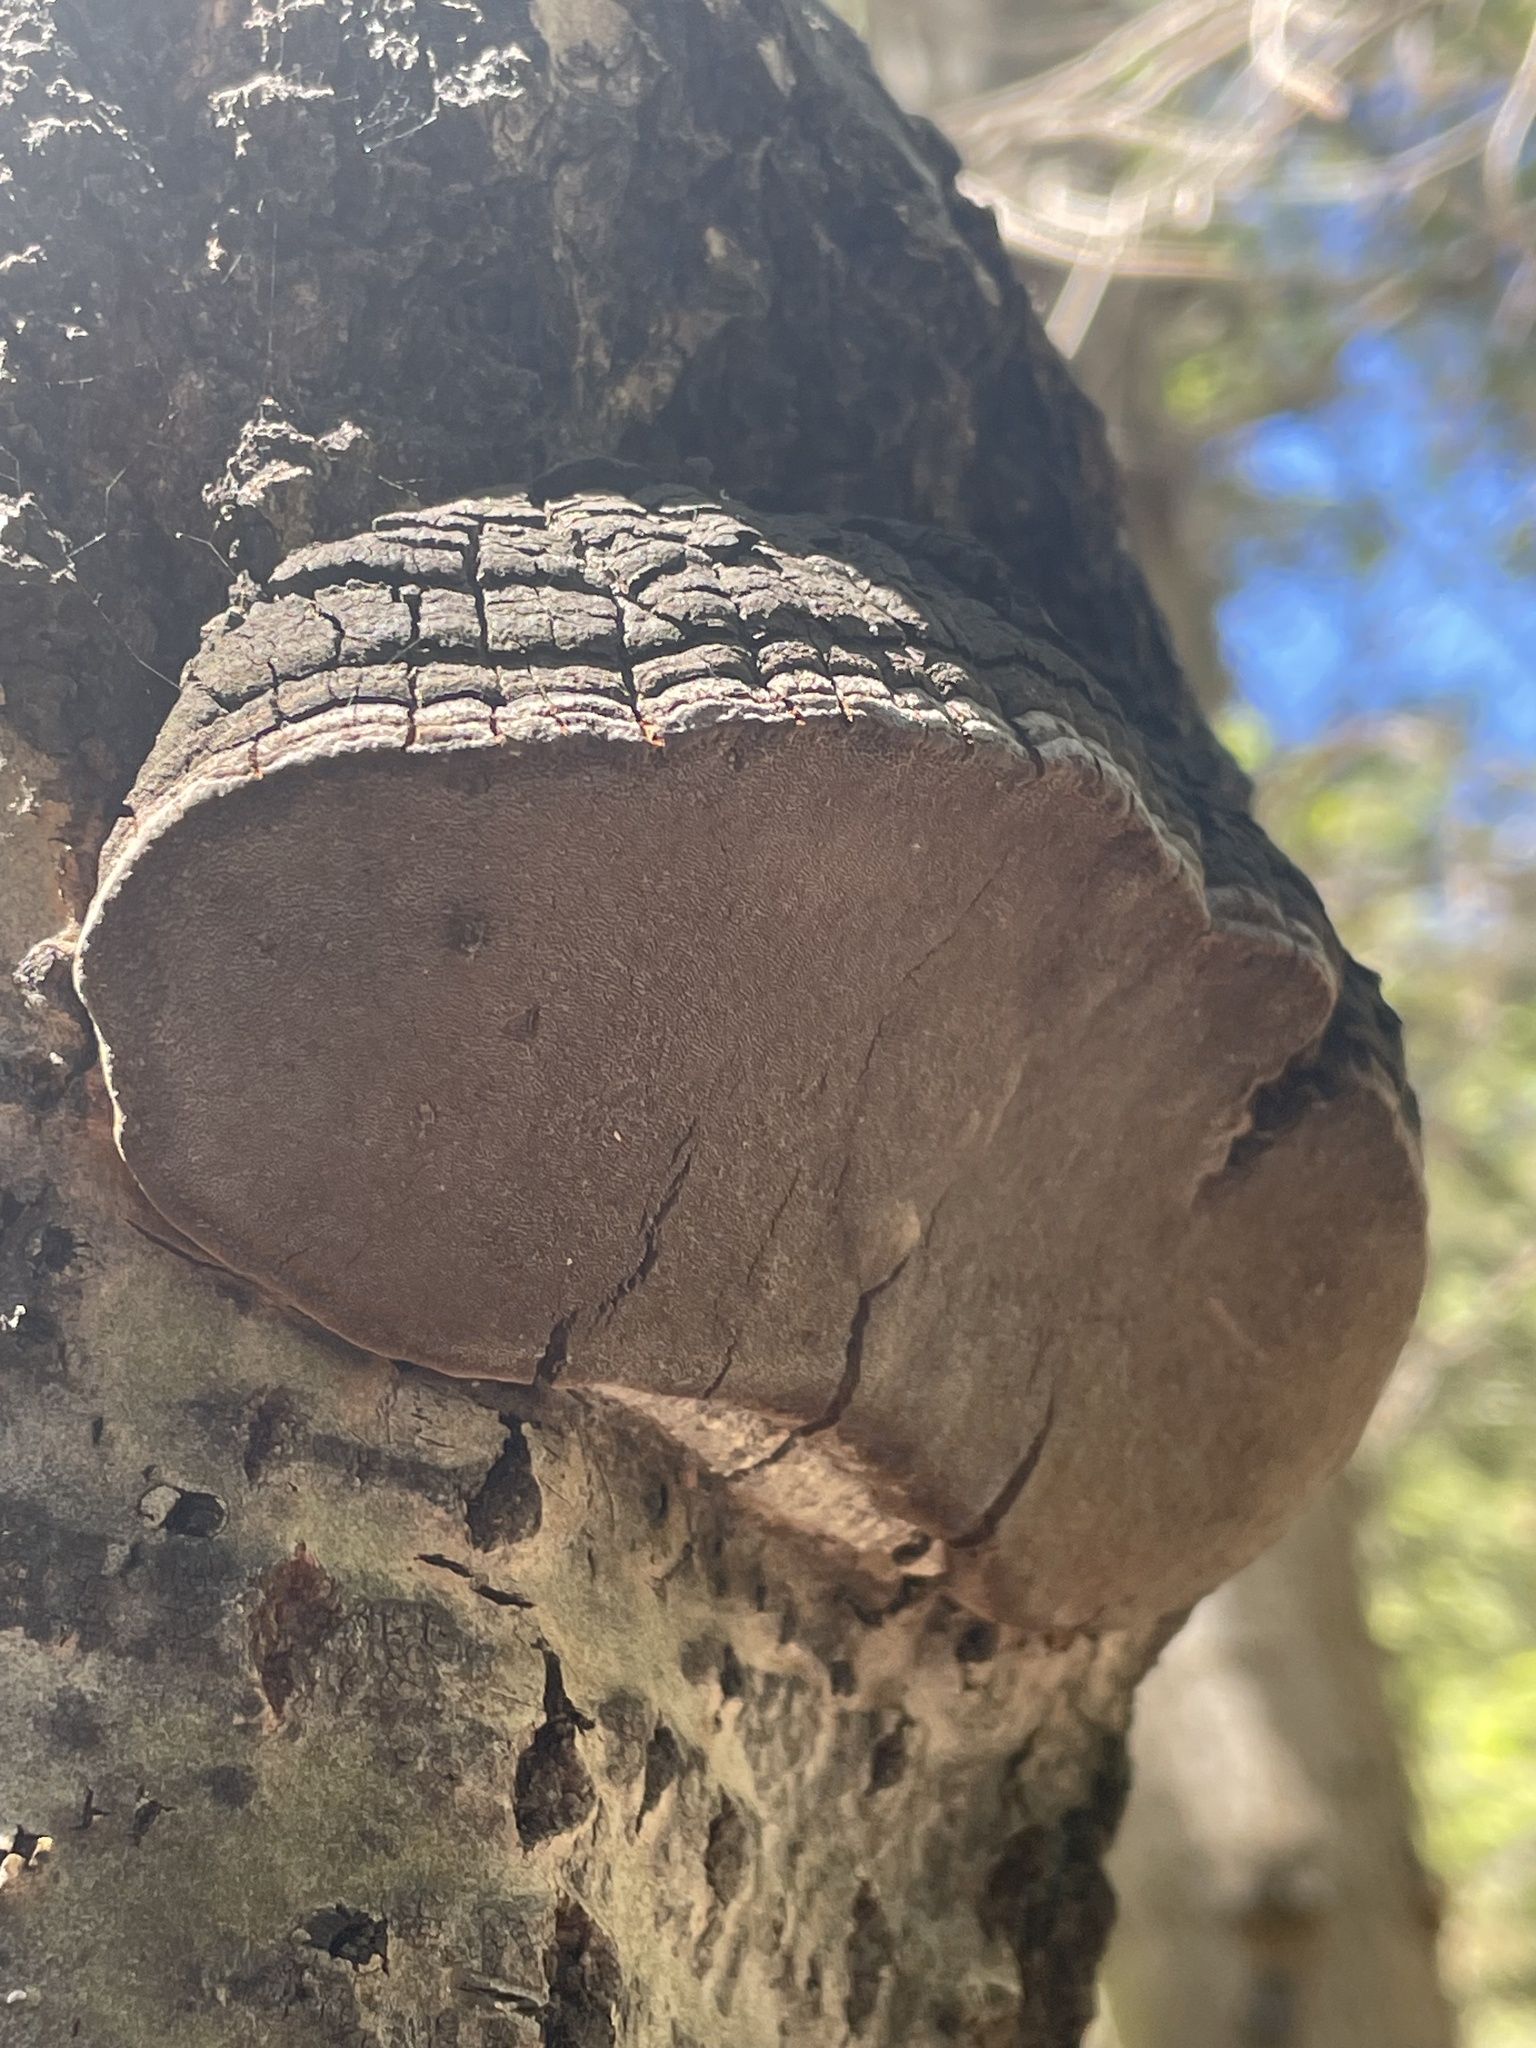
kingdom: Fungi
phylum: Basidiomycota
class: Agaricomycetes
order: Hymenochaetales
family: Hymenochaetaceae
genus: Phellinus
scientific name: Phellinus tremulae
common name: Aspen bracket
